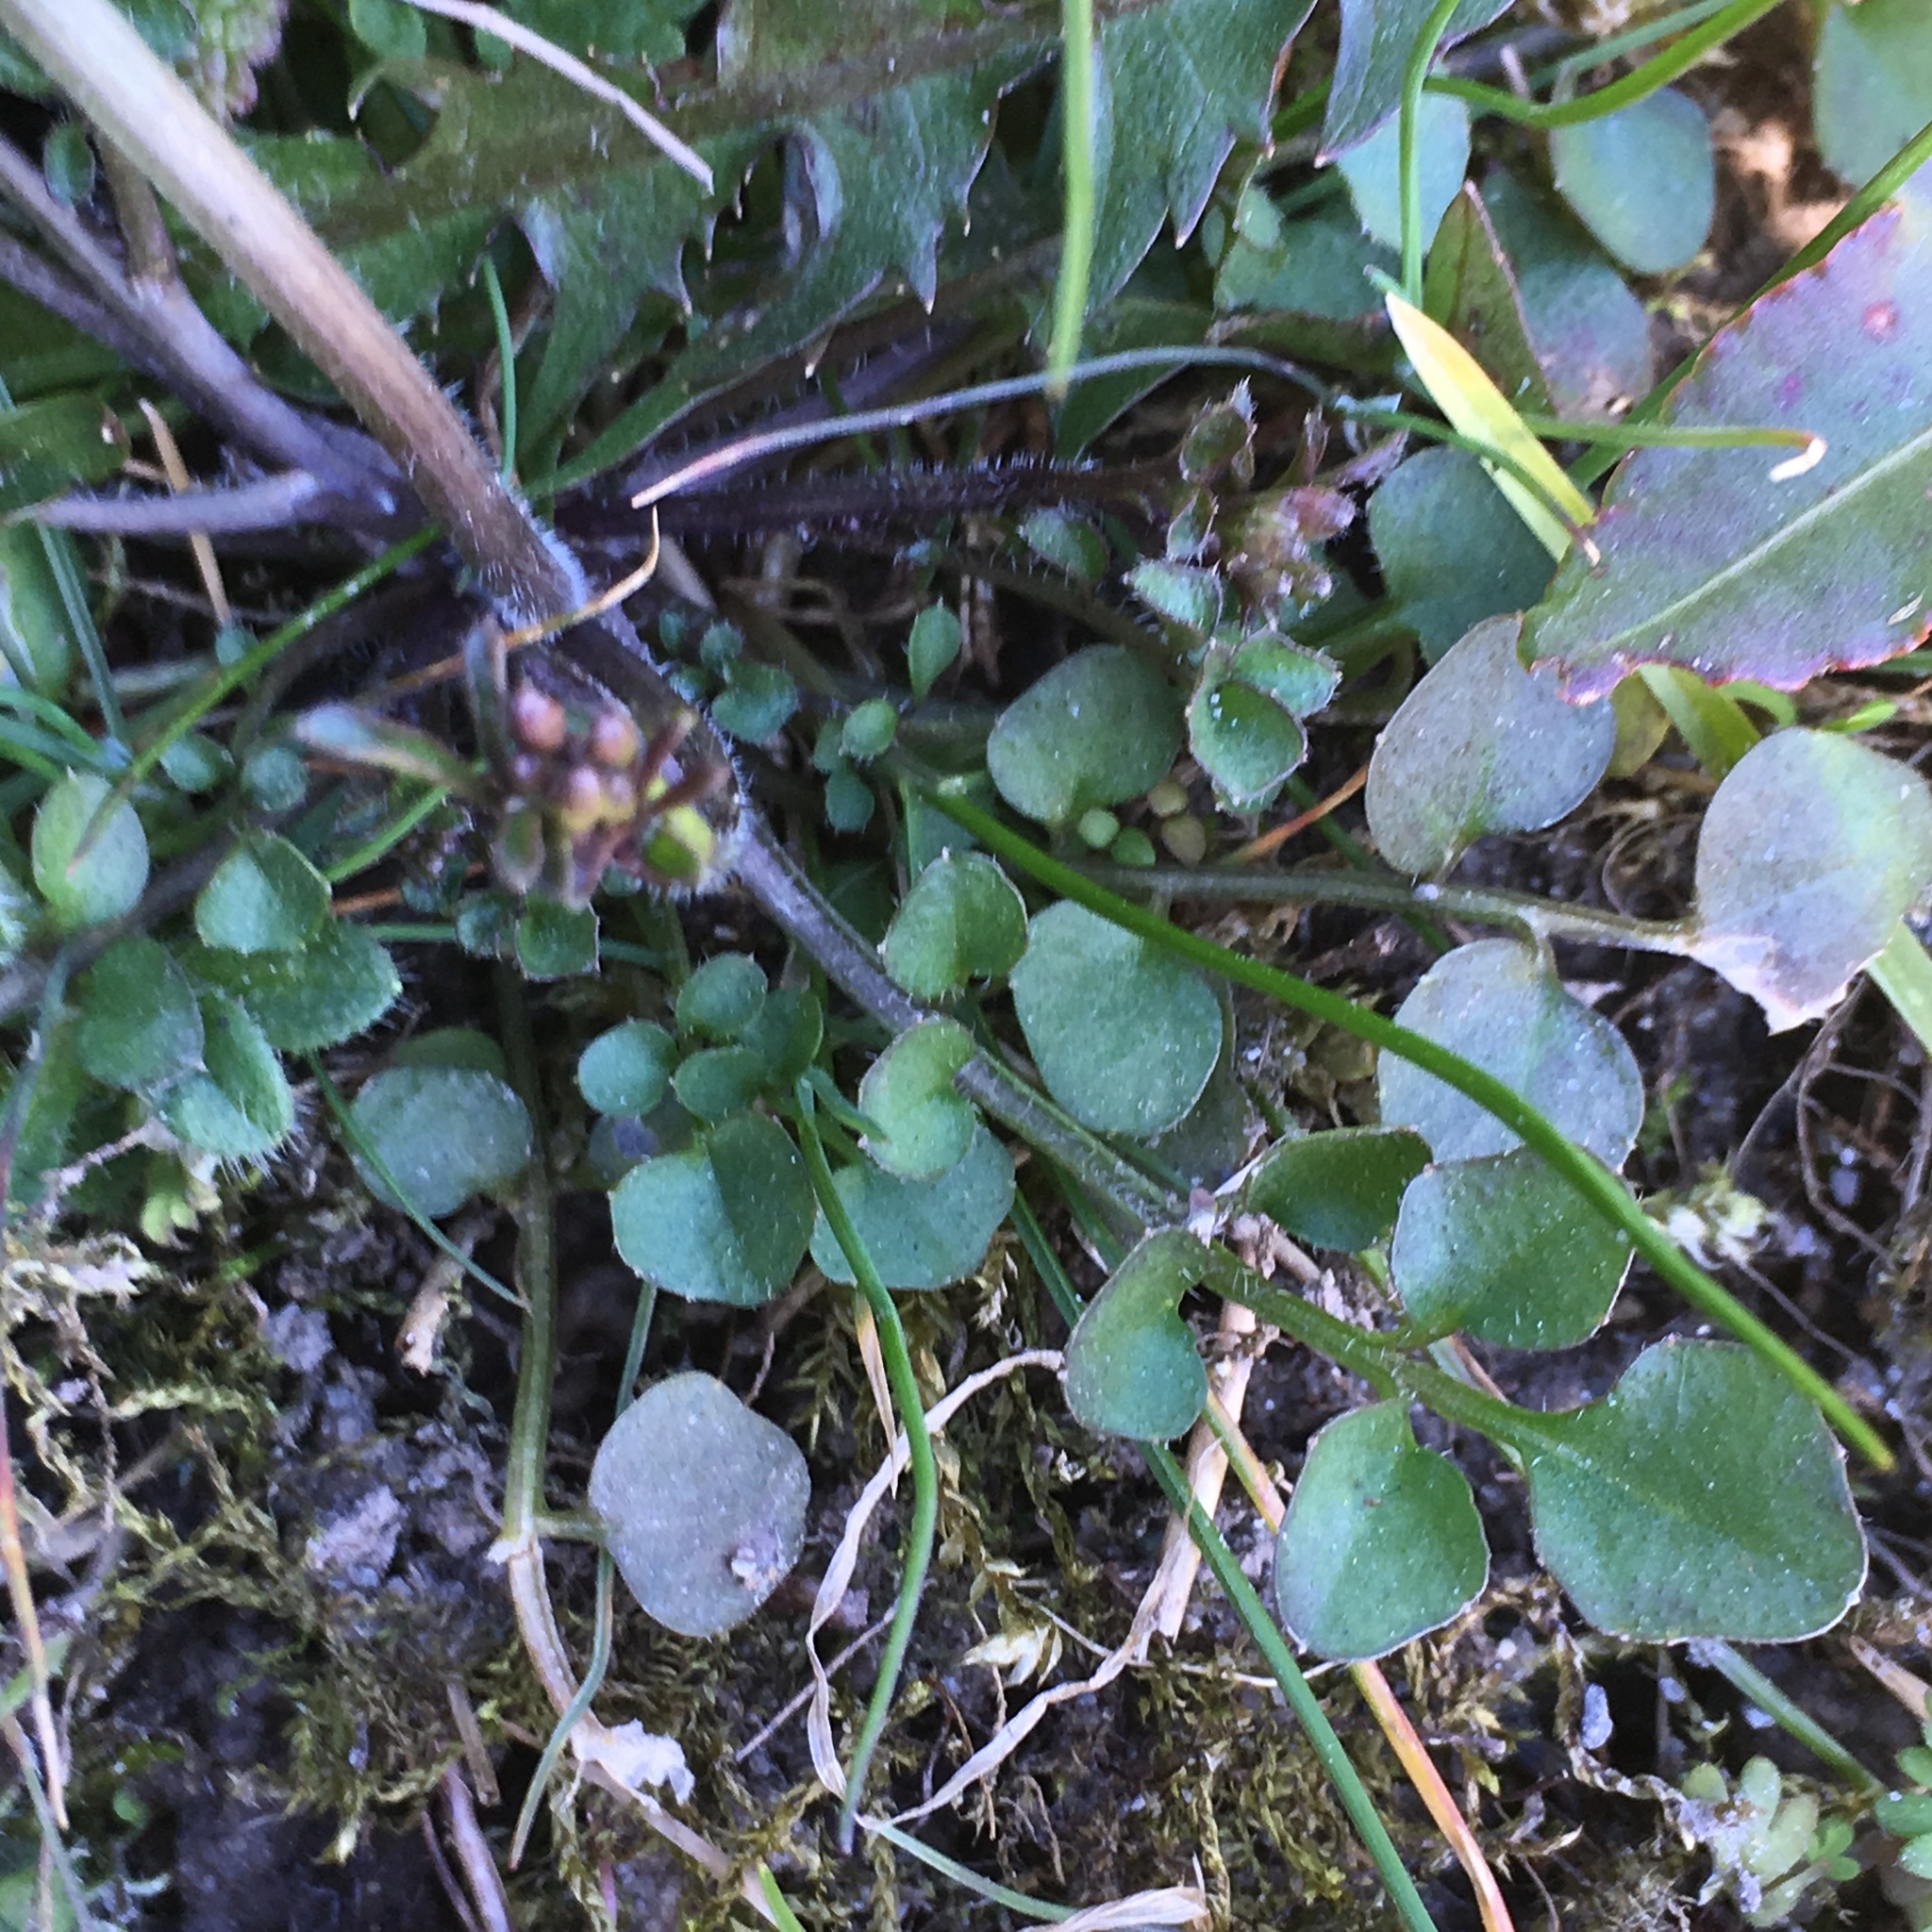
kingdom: Plantae
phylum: Tracheophyta
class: Magnoliopsida
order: Brassicales
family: Brassicaceae
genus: Cardamine
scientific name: Cardamine hirsuta
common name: Hairy bittercress
